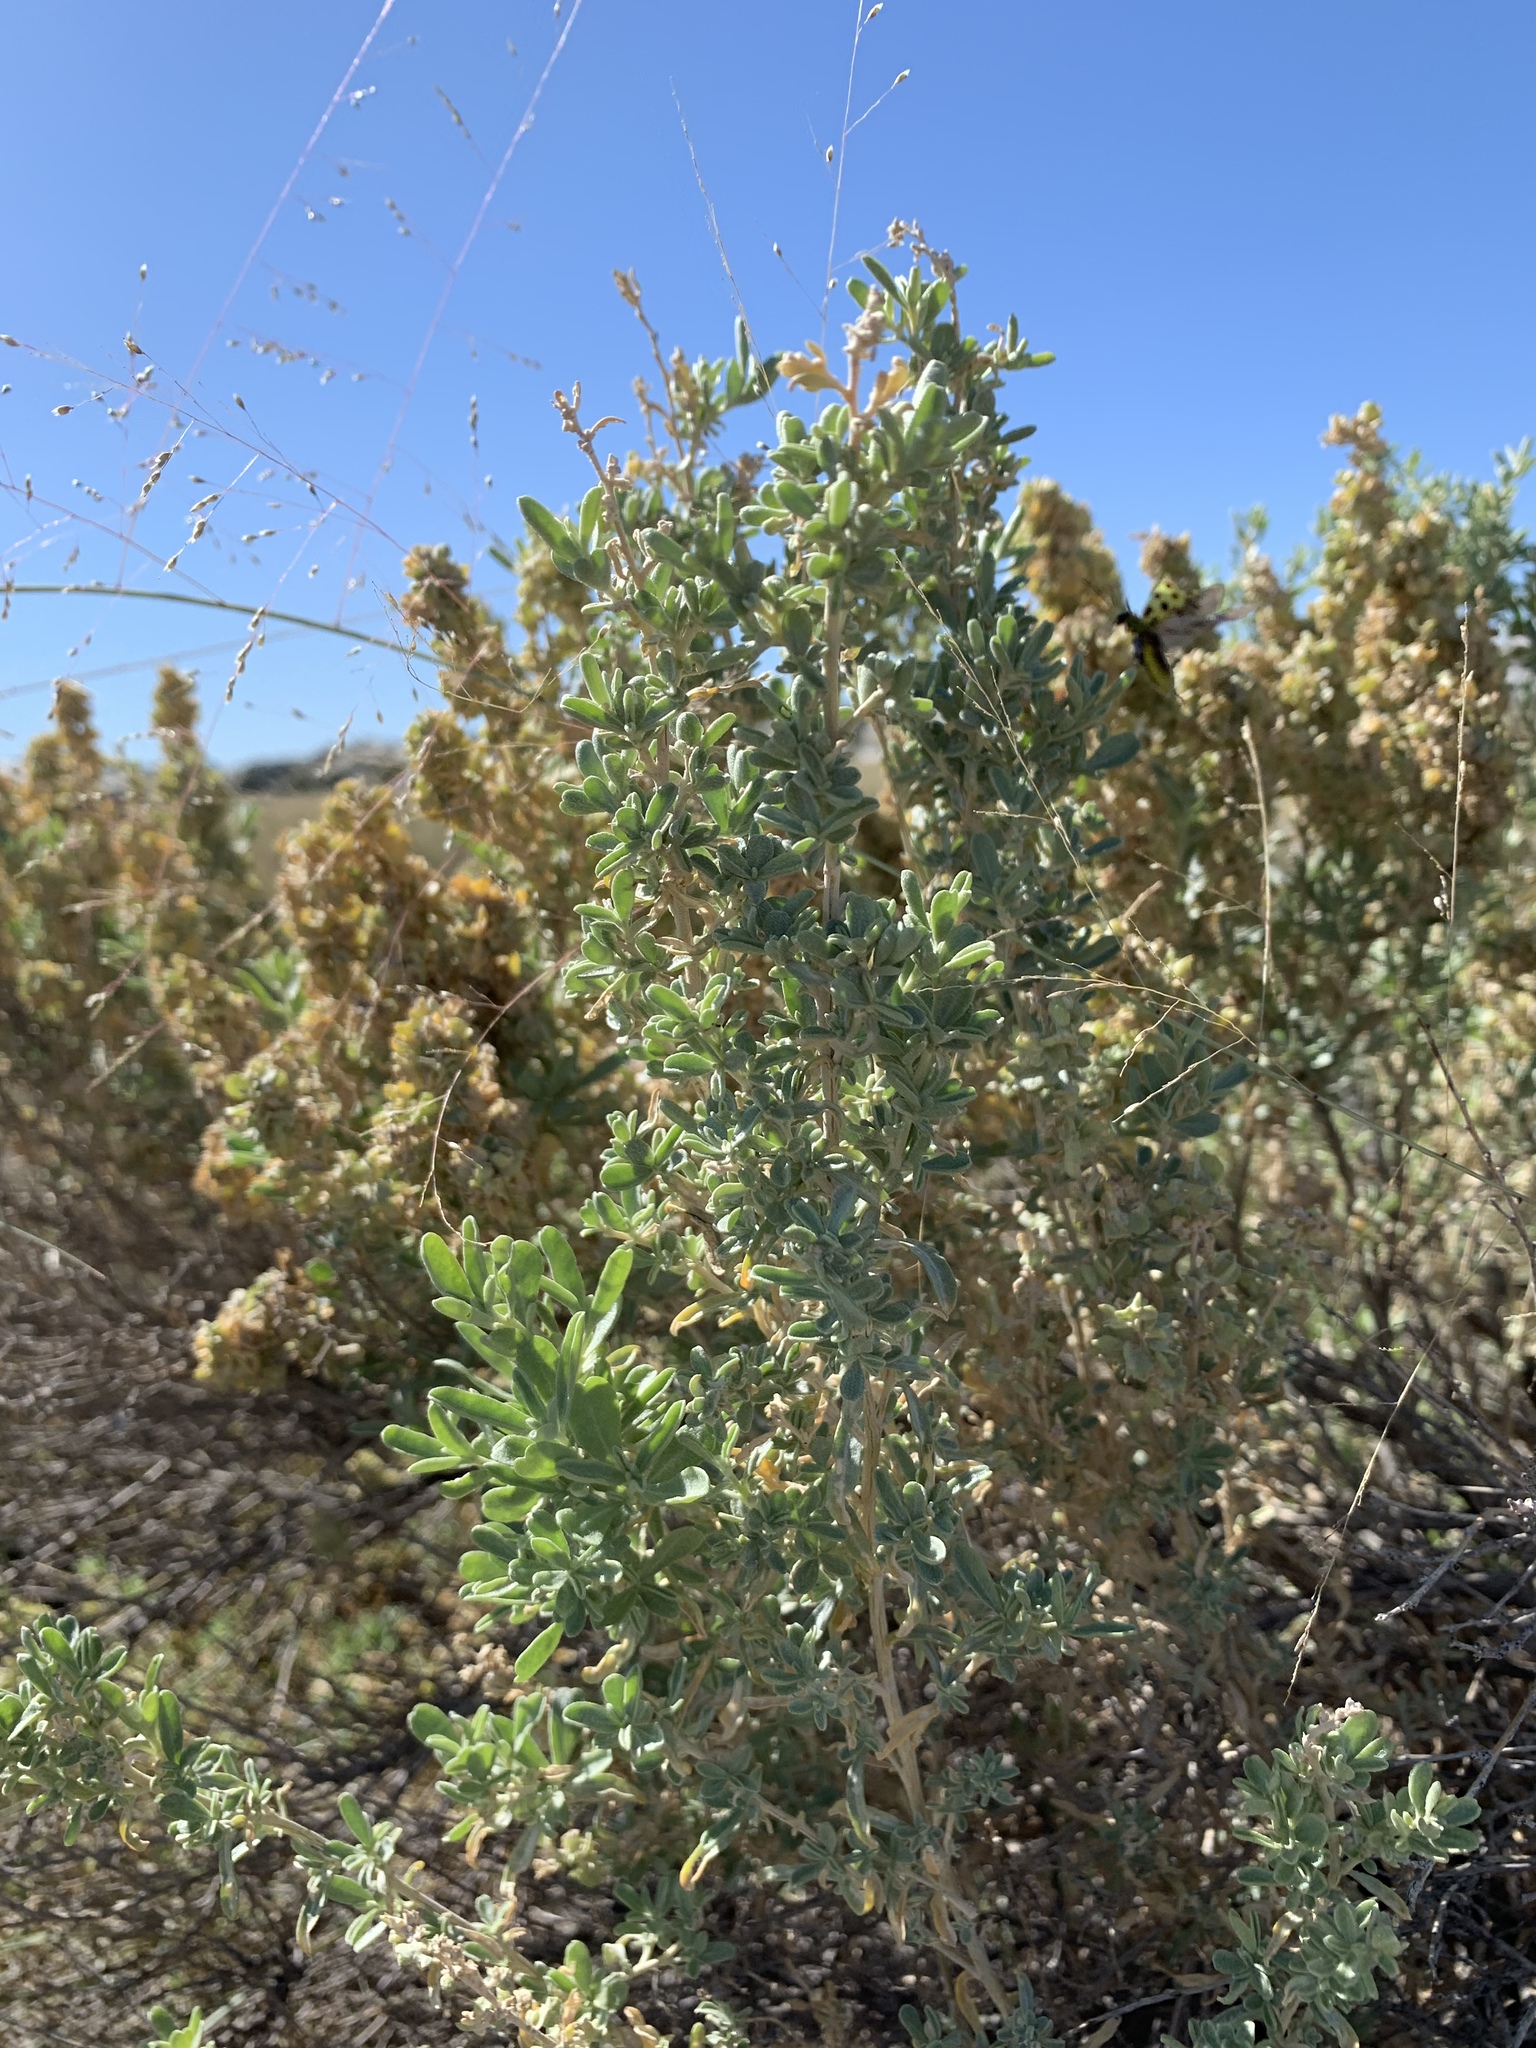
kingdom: Plantae
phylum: Tracheophyta
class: Magnoliopsida
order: Caryophyllales
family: Amaranthaceae
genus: Atriplex
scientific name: Atriplex canescens
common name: Four-wing saltbush
